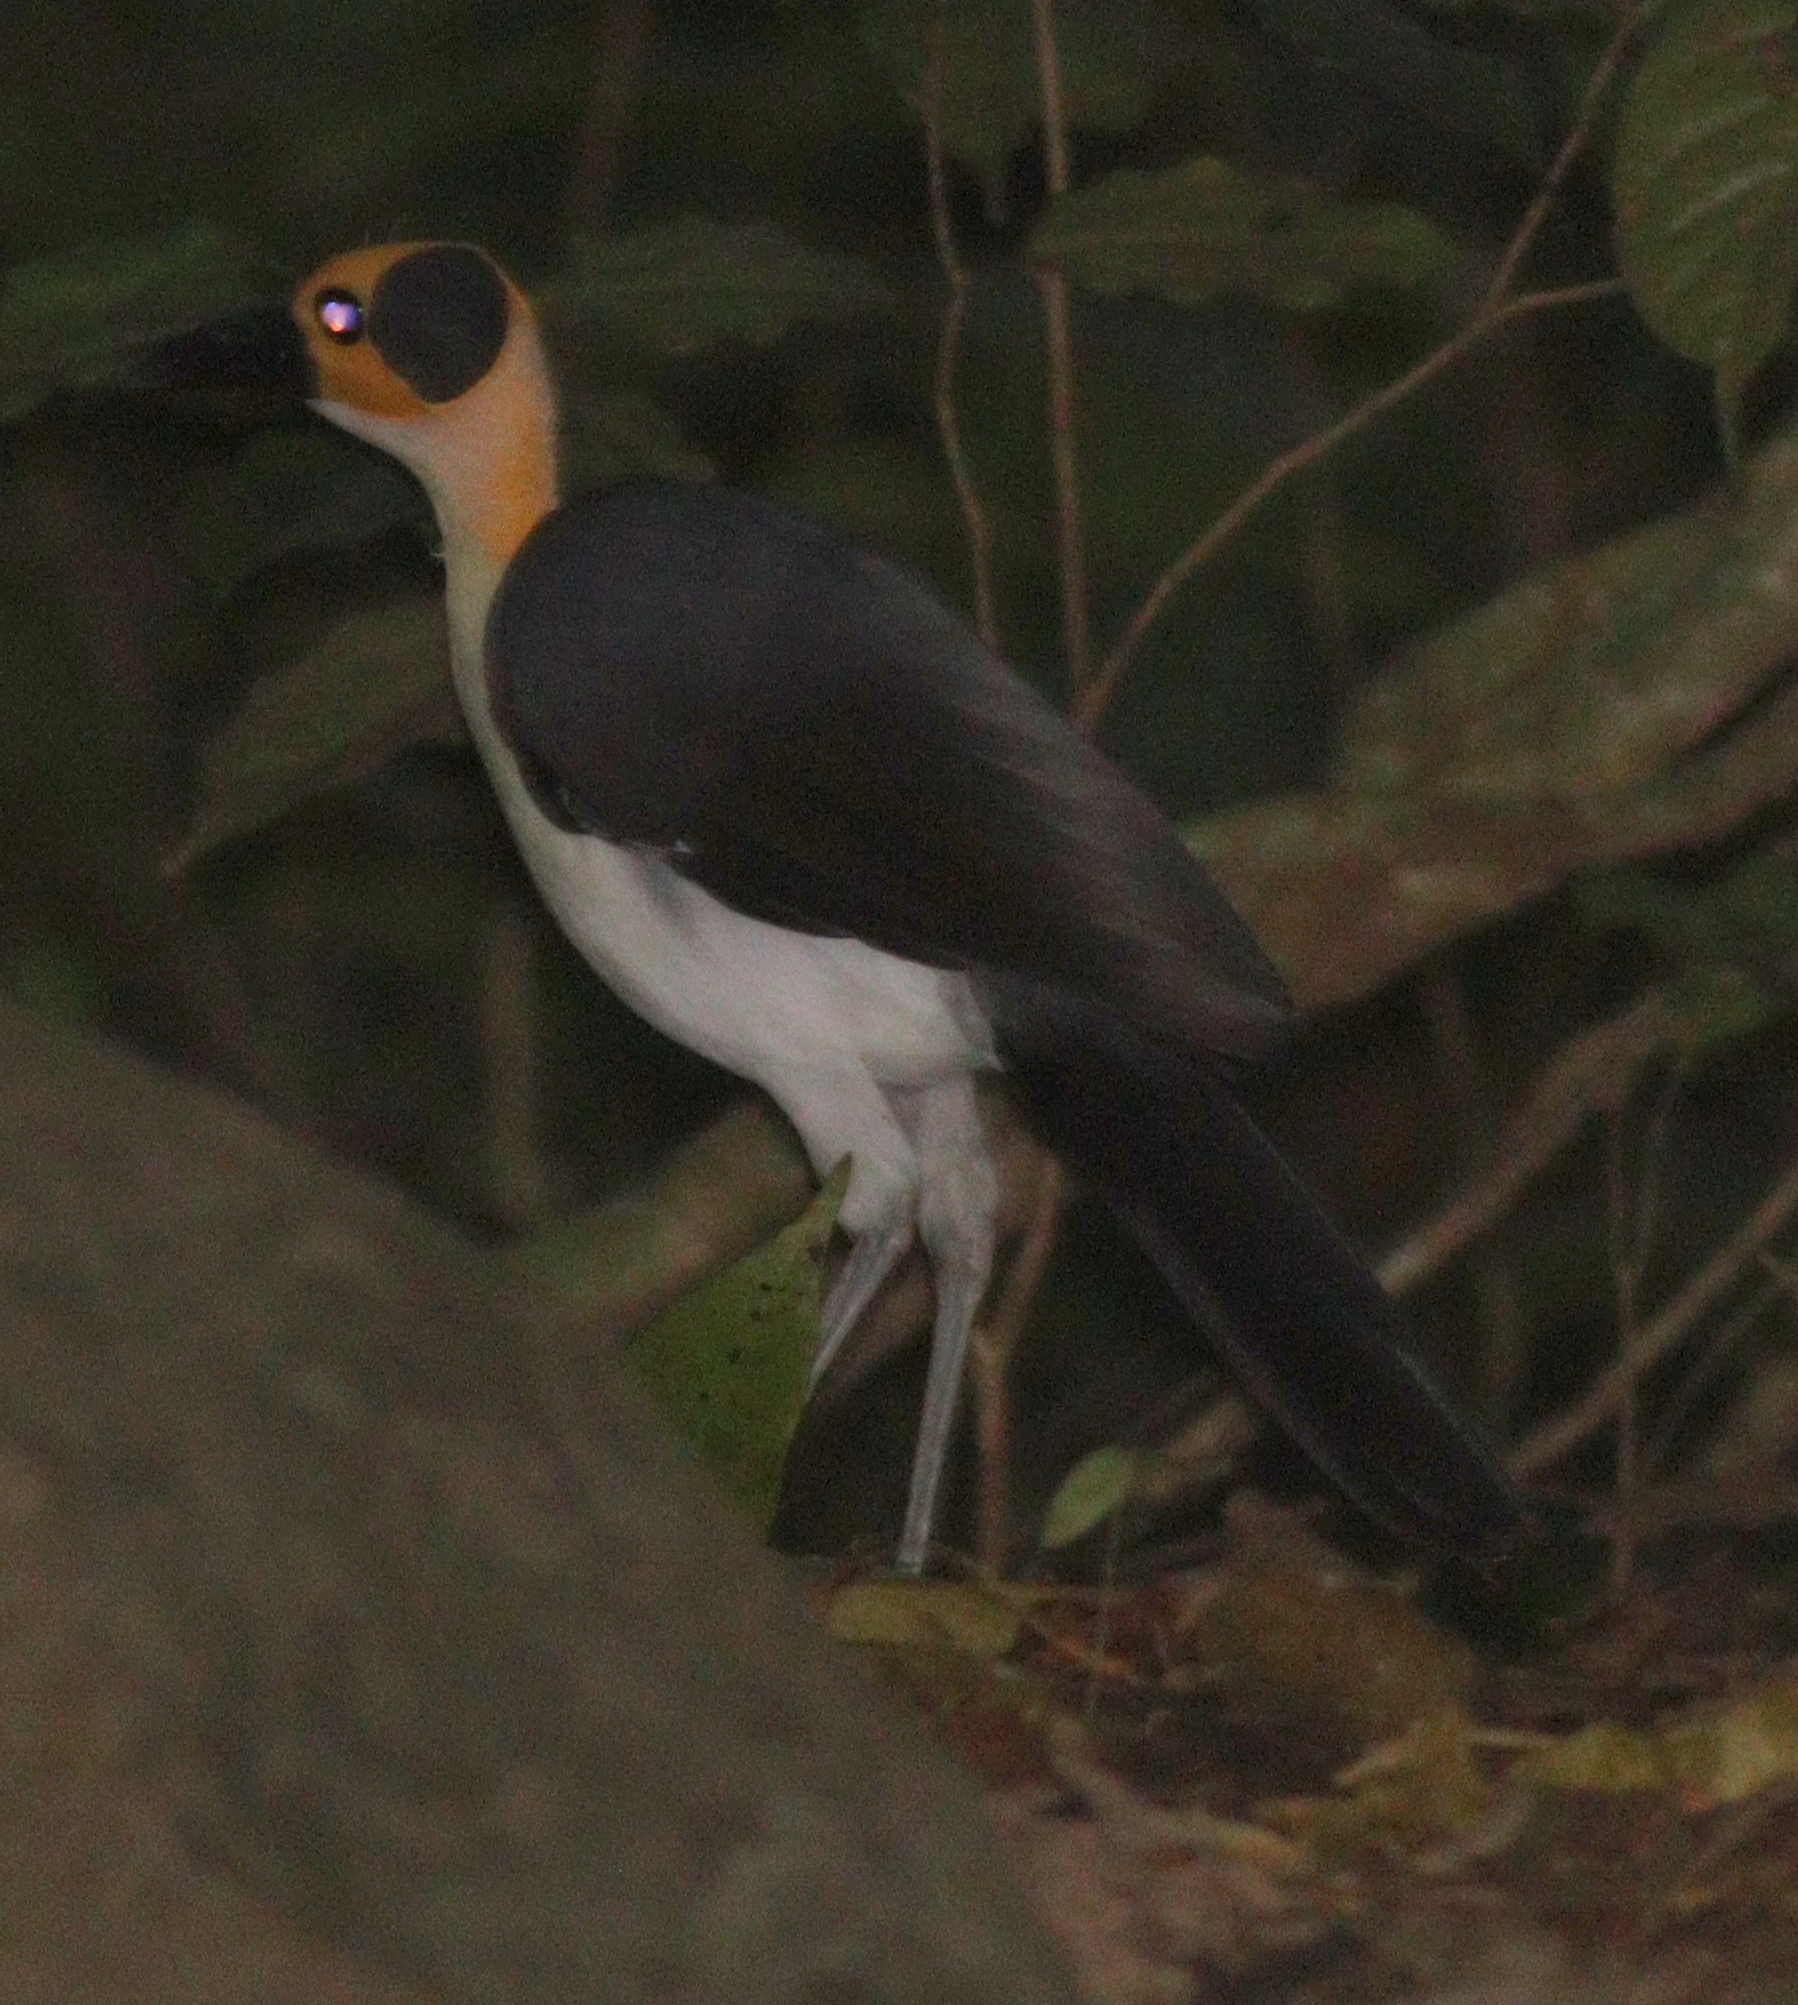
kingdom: Animalia
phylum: Chordata
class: Aves
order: Passeriformes
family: Picathartidae
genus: Picathartes
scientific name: Picathartes gymnocephalus
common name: White-necked rockfowl
